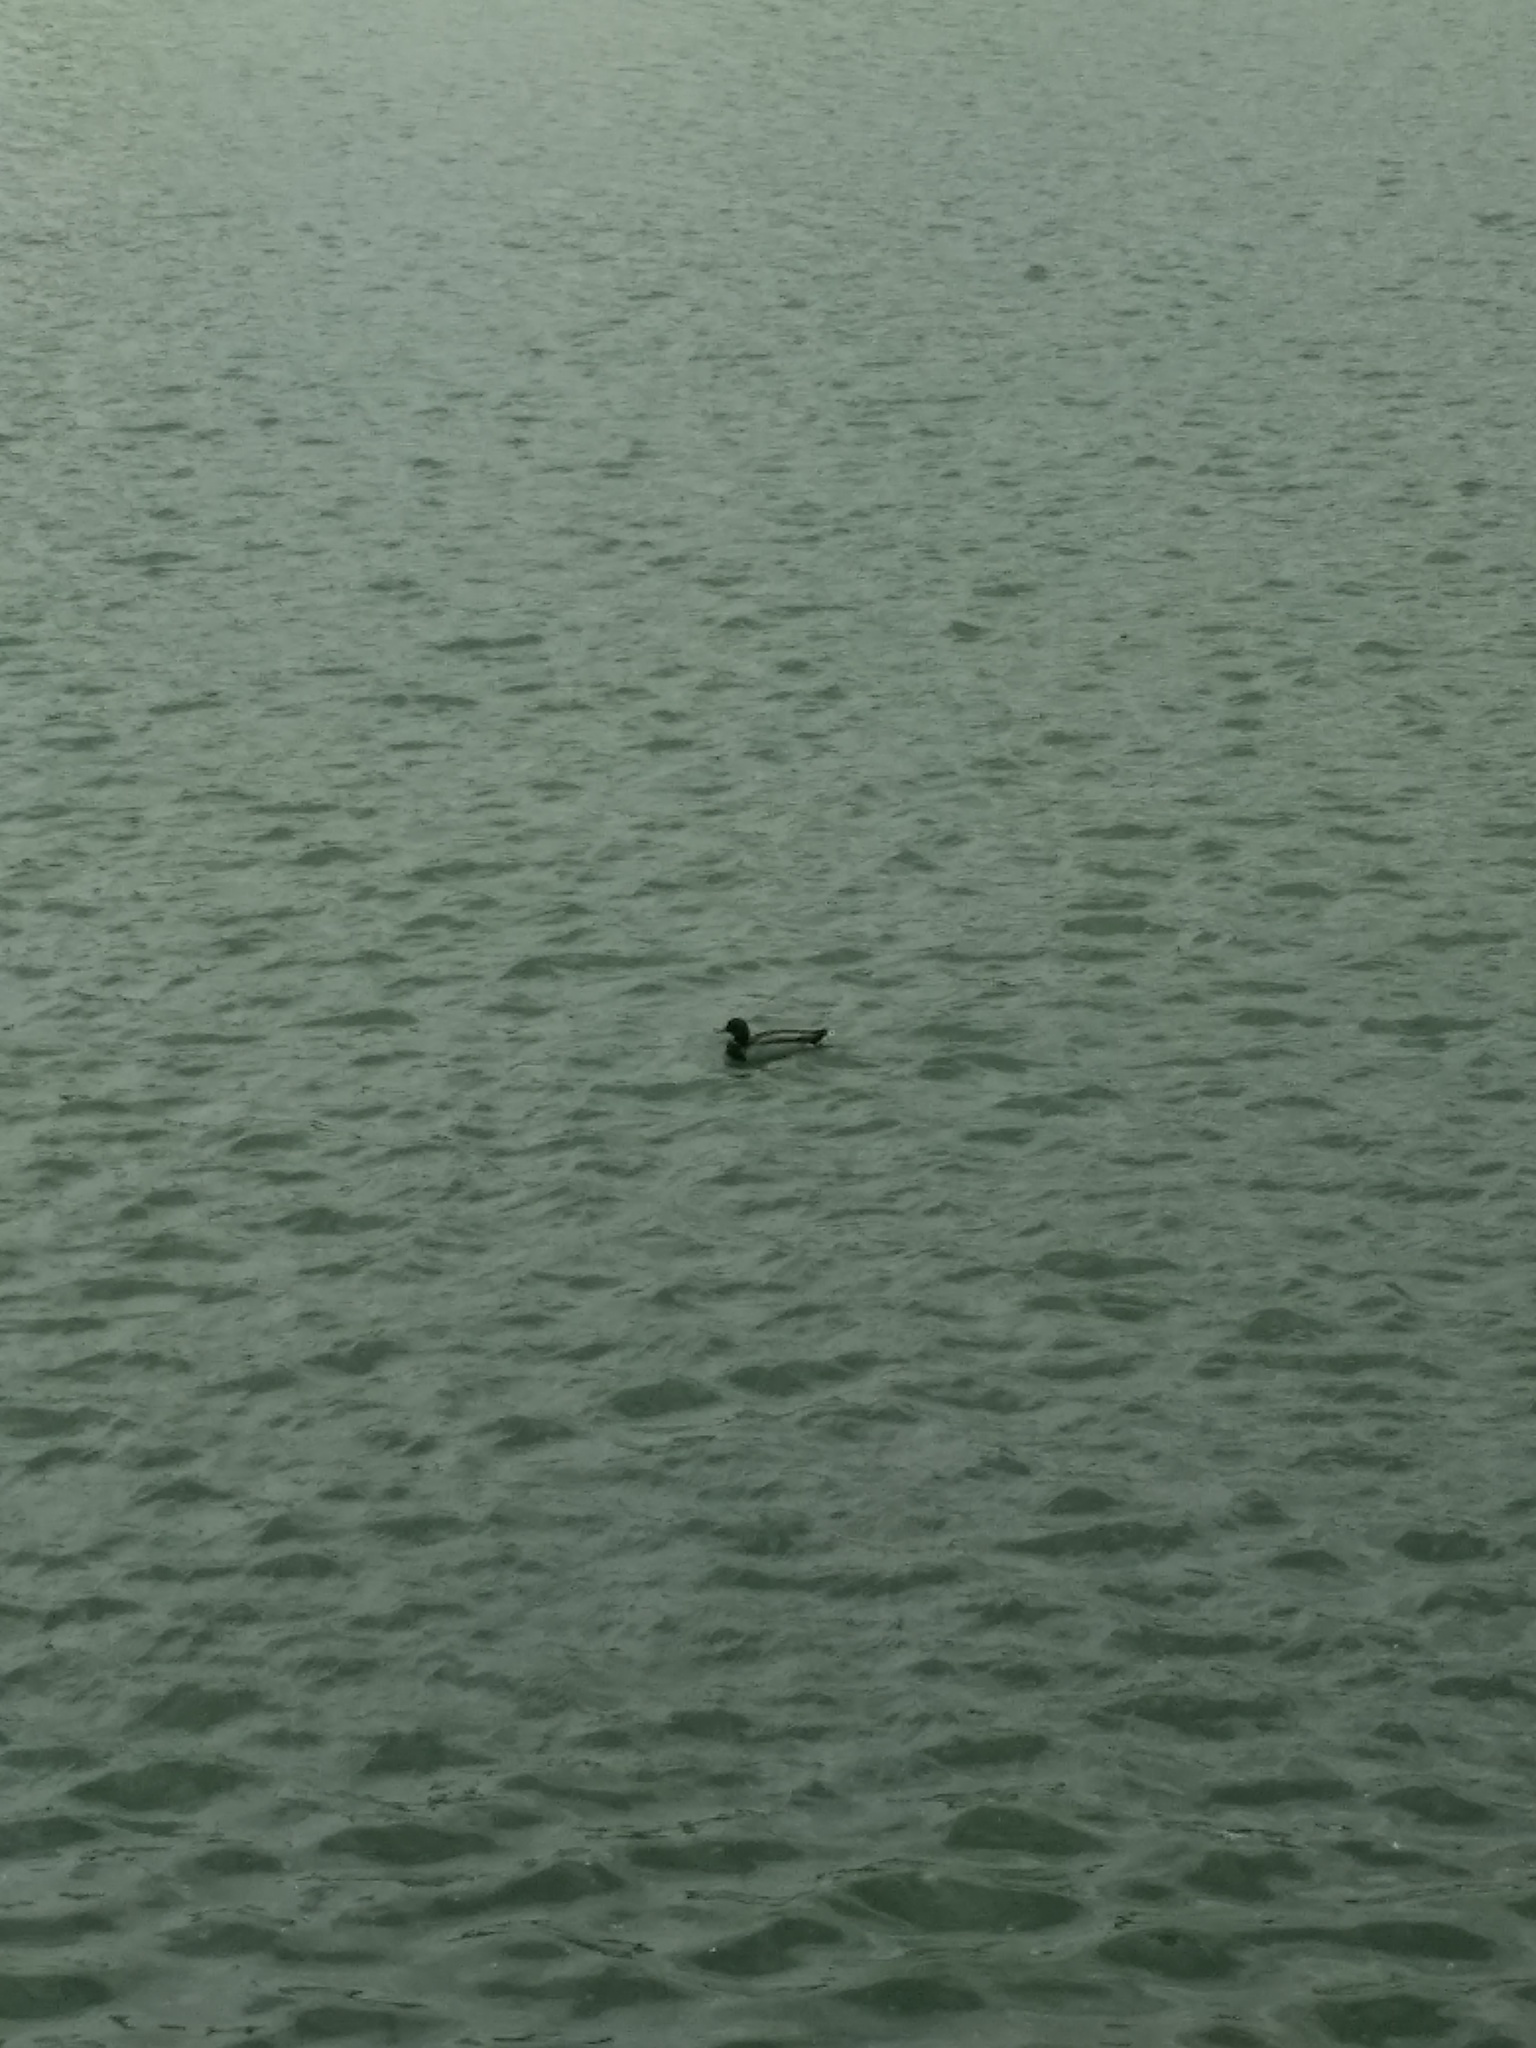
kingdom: Animalia
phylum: Chordata
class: Aves
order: Anseriformes
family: Anatidae
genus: Anas
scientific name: Anas platyrhynchos
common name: Mallard
